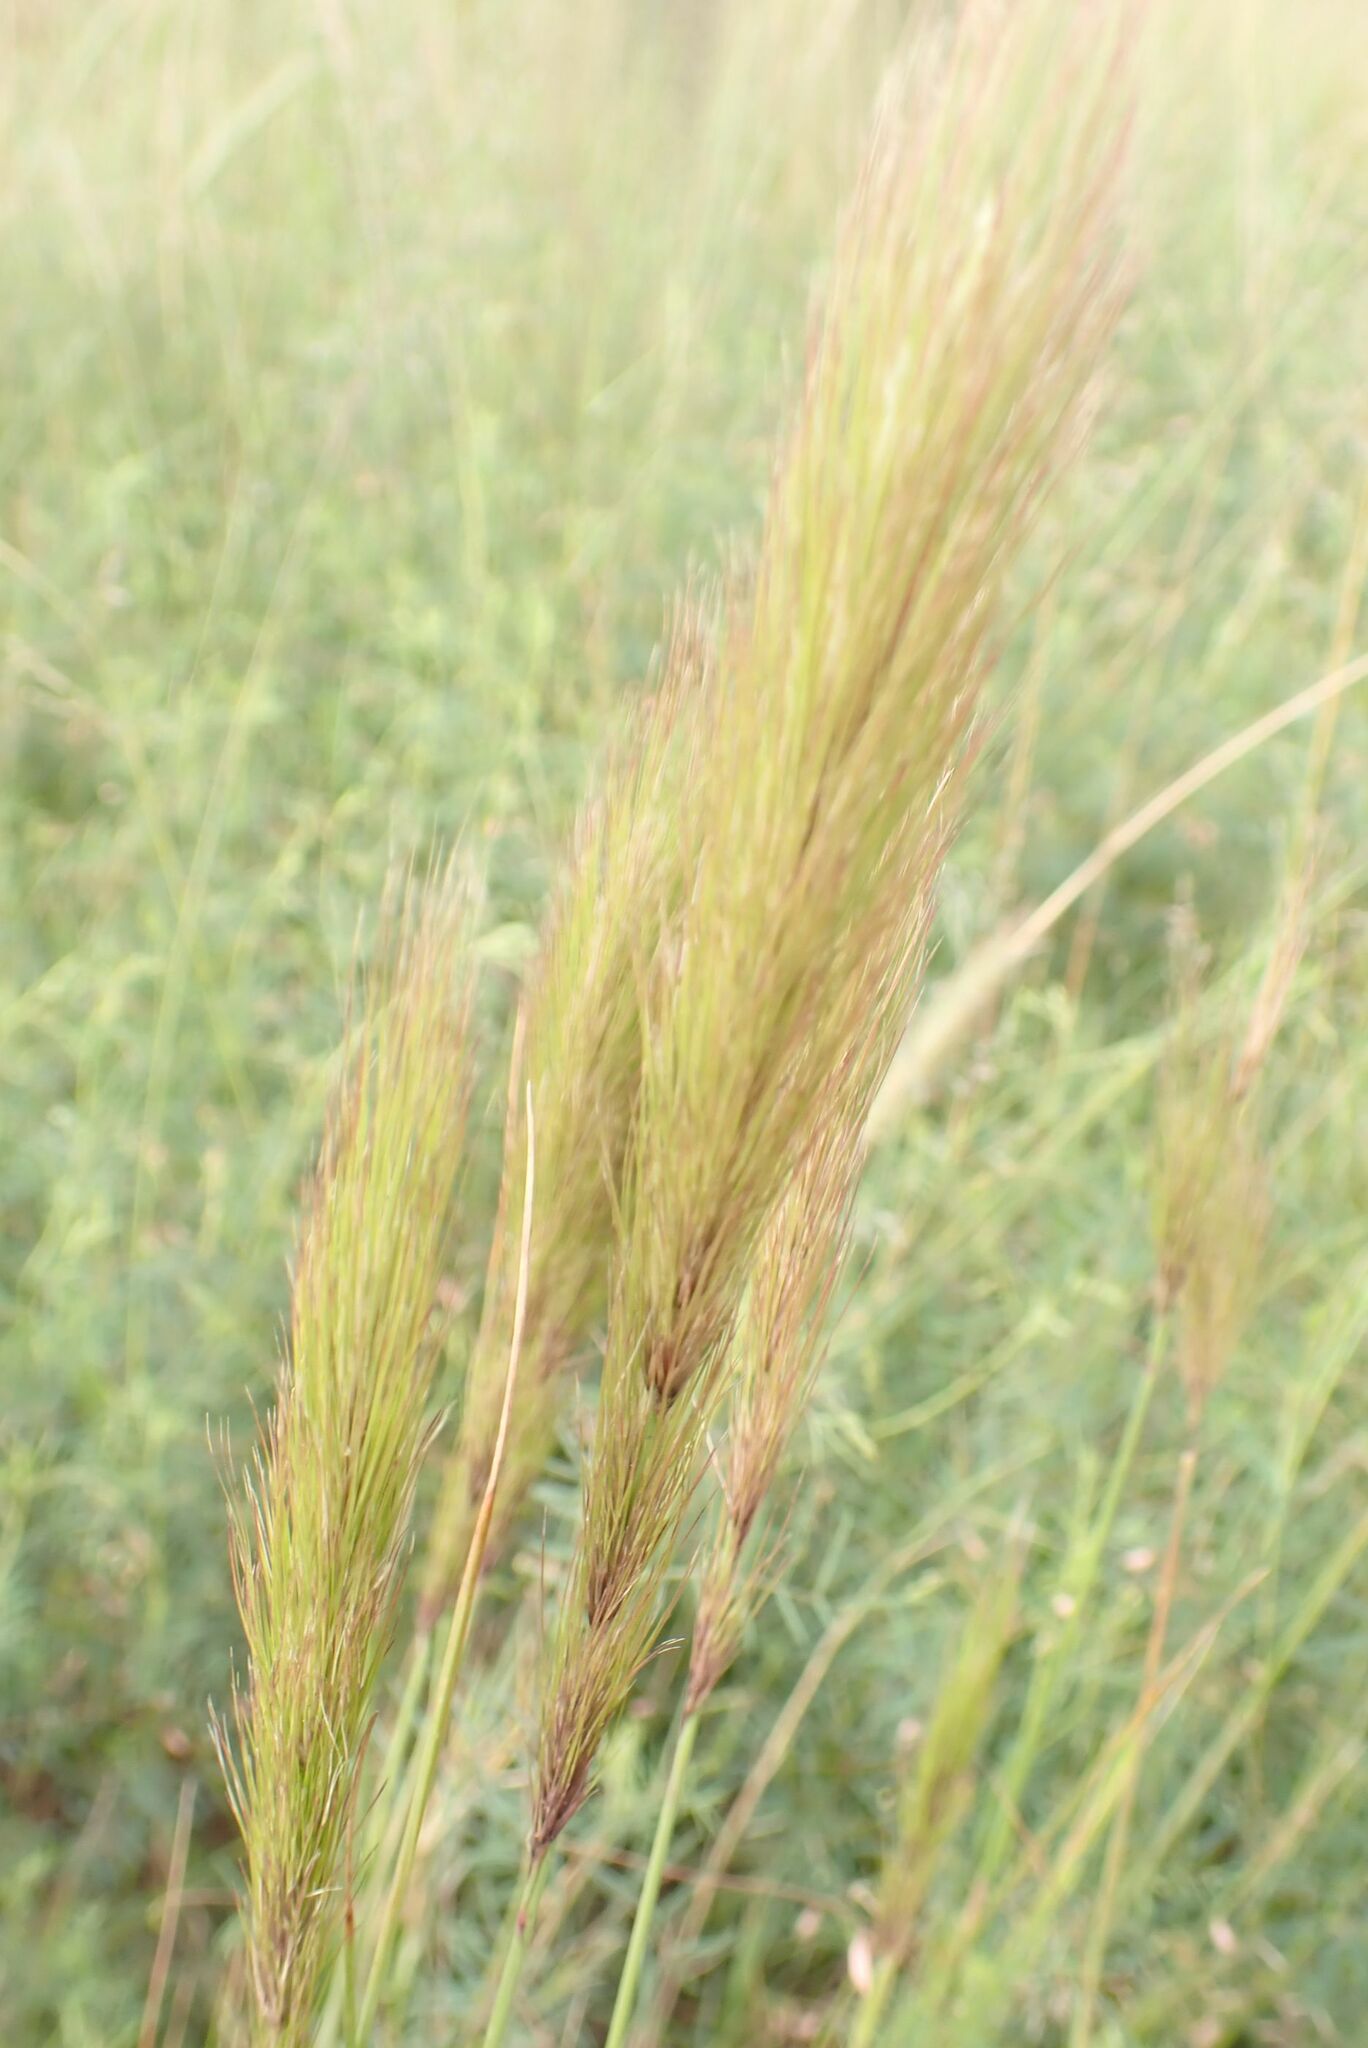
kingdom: Plantae
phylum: Tracheophyta
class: Liliopsida
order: Poales
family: Poaceae
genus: Aristida
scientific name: Aristida congesta
